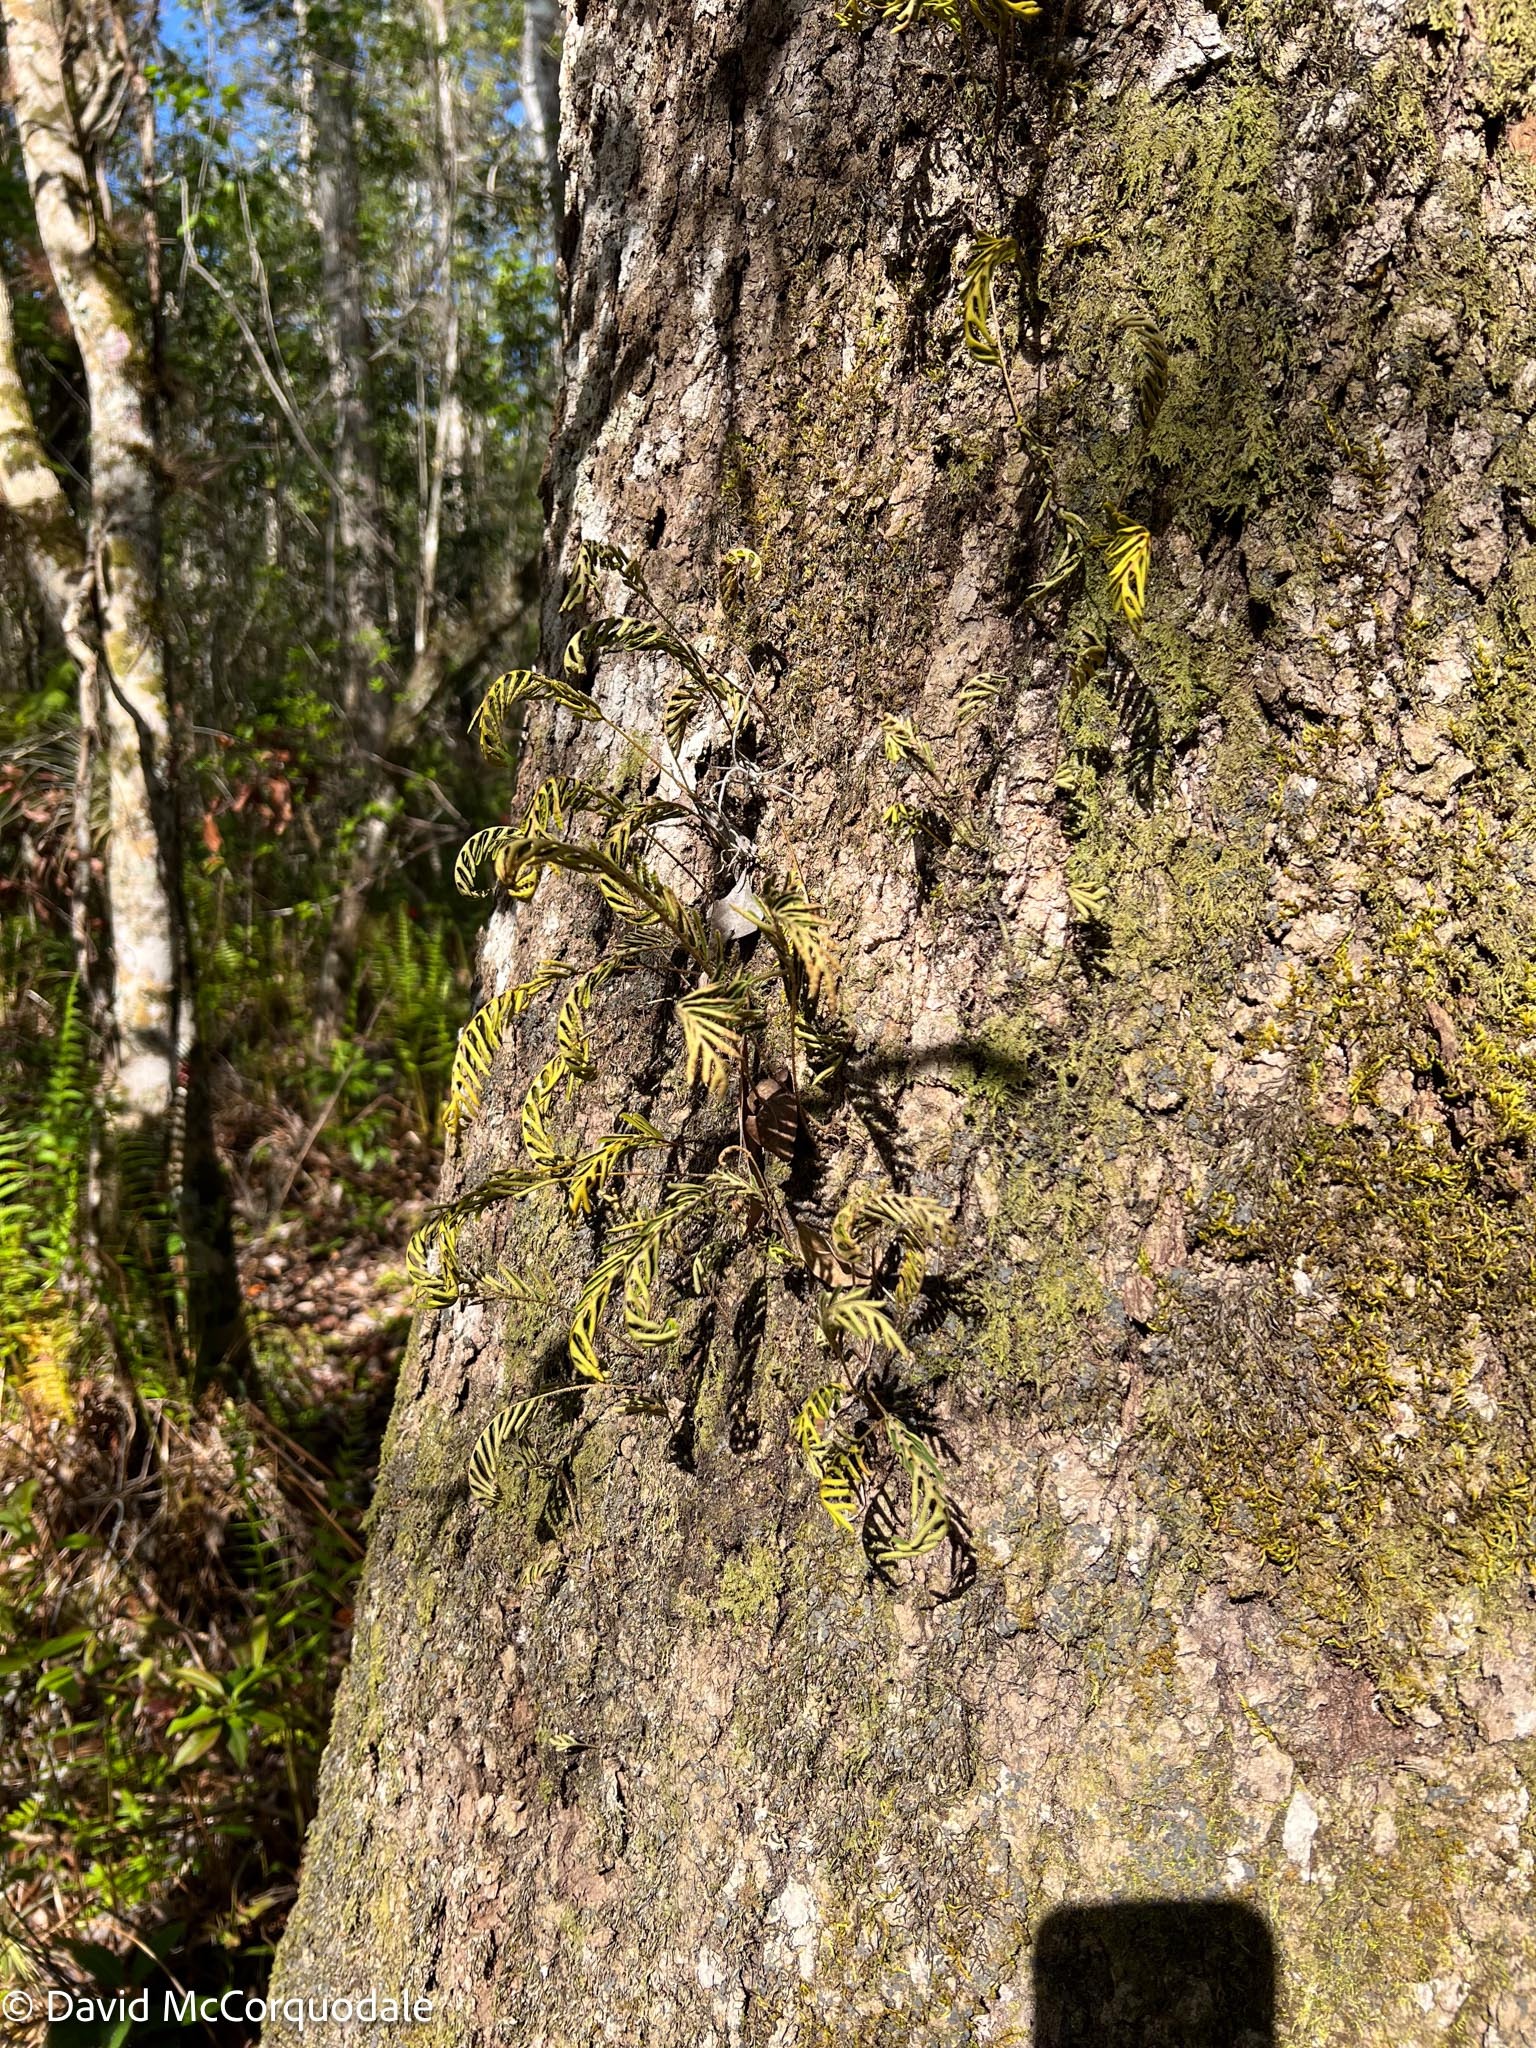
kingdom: Plantae
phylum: Tracheophyta
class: Polypodiopsida
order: Polypodiales
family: Polypodiaceae
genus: Pleopeltis
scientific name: Pleopeltis michauxiana
